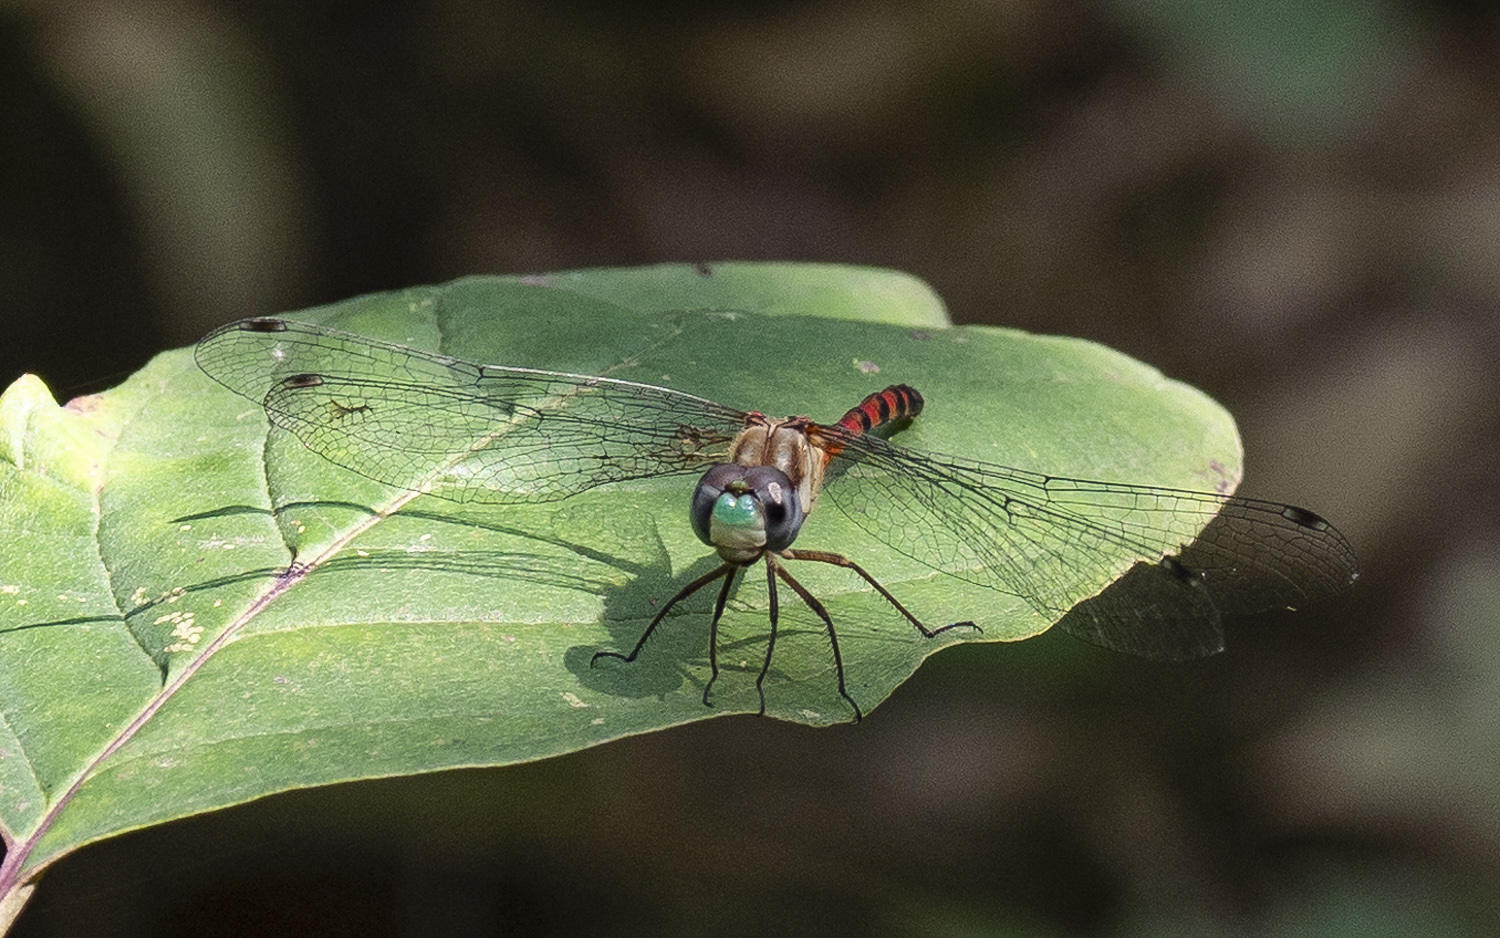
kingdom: Animalia
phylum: Arthropoda
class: Insecta
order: Odonata
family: Libellulidae
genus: Sympetrum
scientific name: Sympetrum ambiguum
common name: Blue-faced meadowhawk
